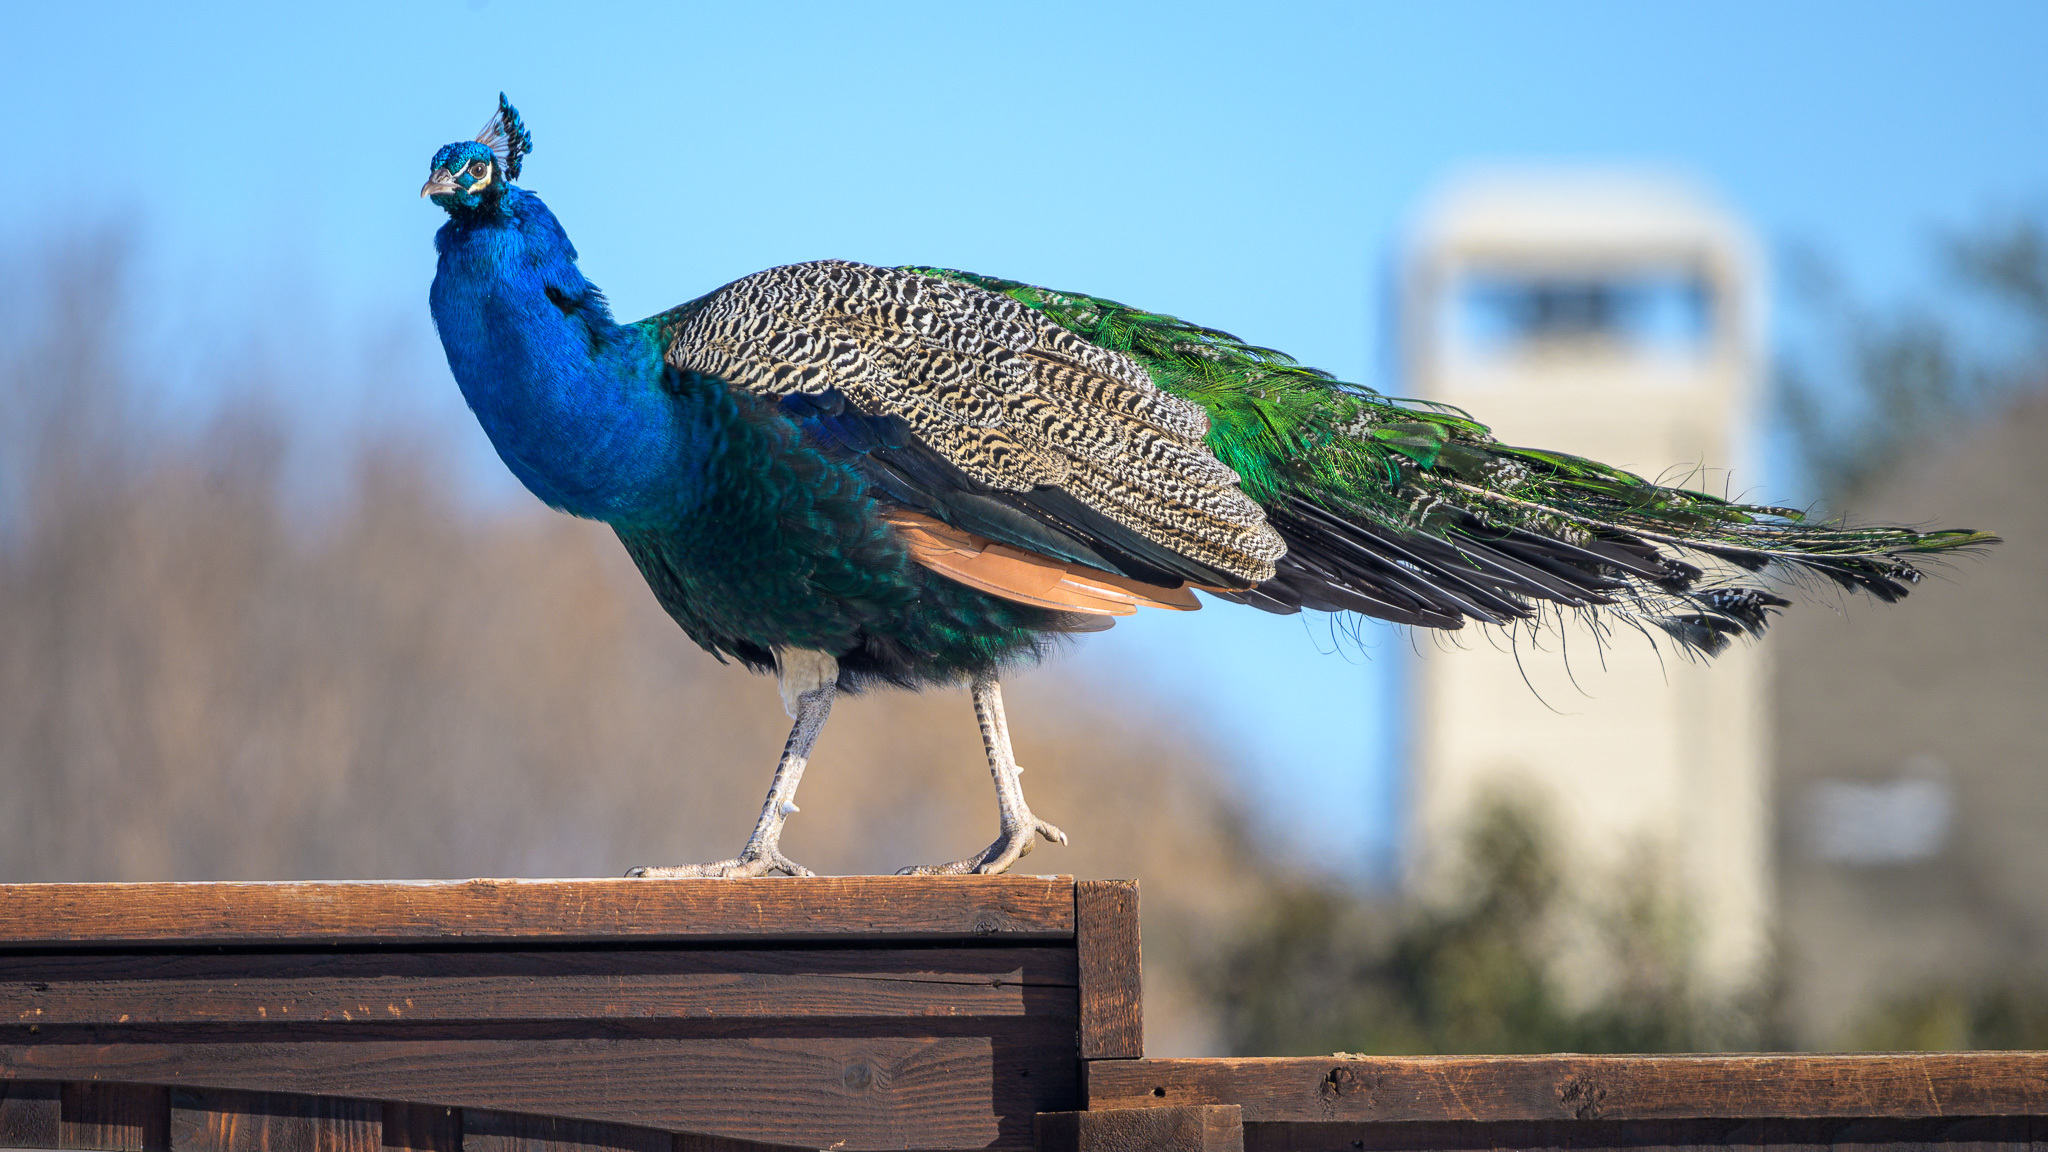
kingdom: Animalia
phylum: Chordata
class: Aves
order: Galliformes
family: Phasianidae
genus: Pavo
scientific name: Pavo cristatus
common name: Indian peafowl
